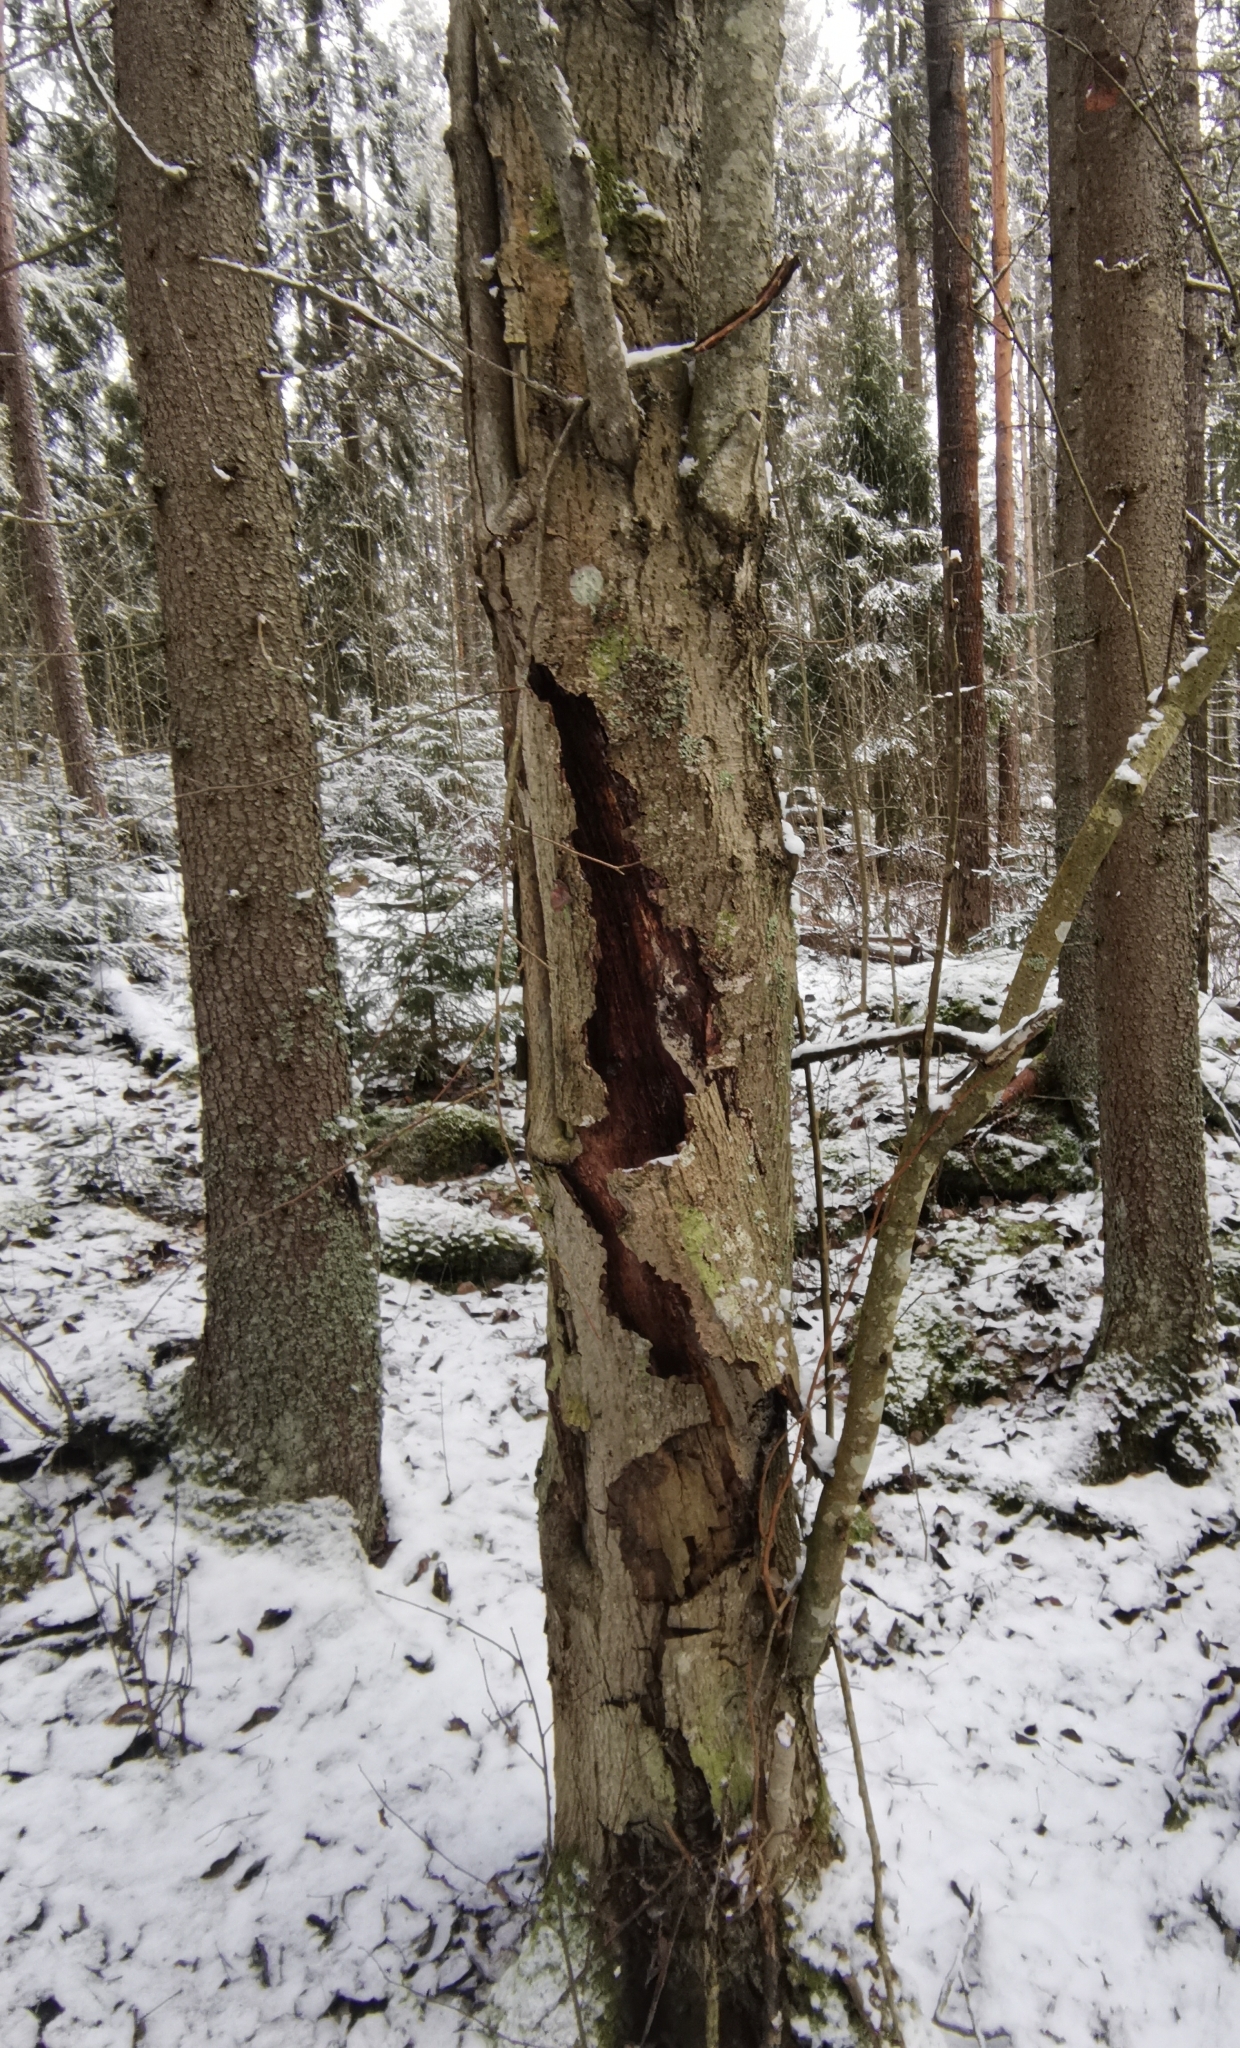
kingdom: Fungi
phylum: Basidiomycota
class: Agaricomycetes
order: Agaricales
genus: Plicatura
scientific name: Plicatura nivea
